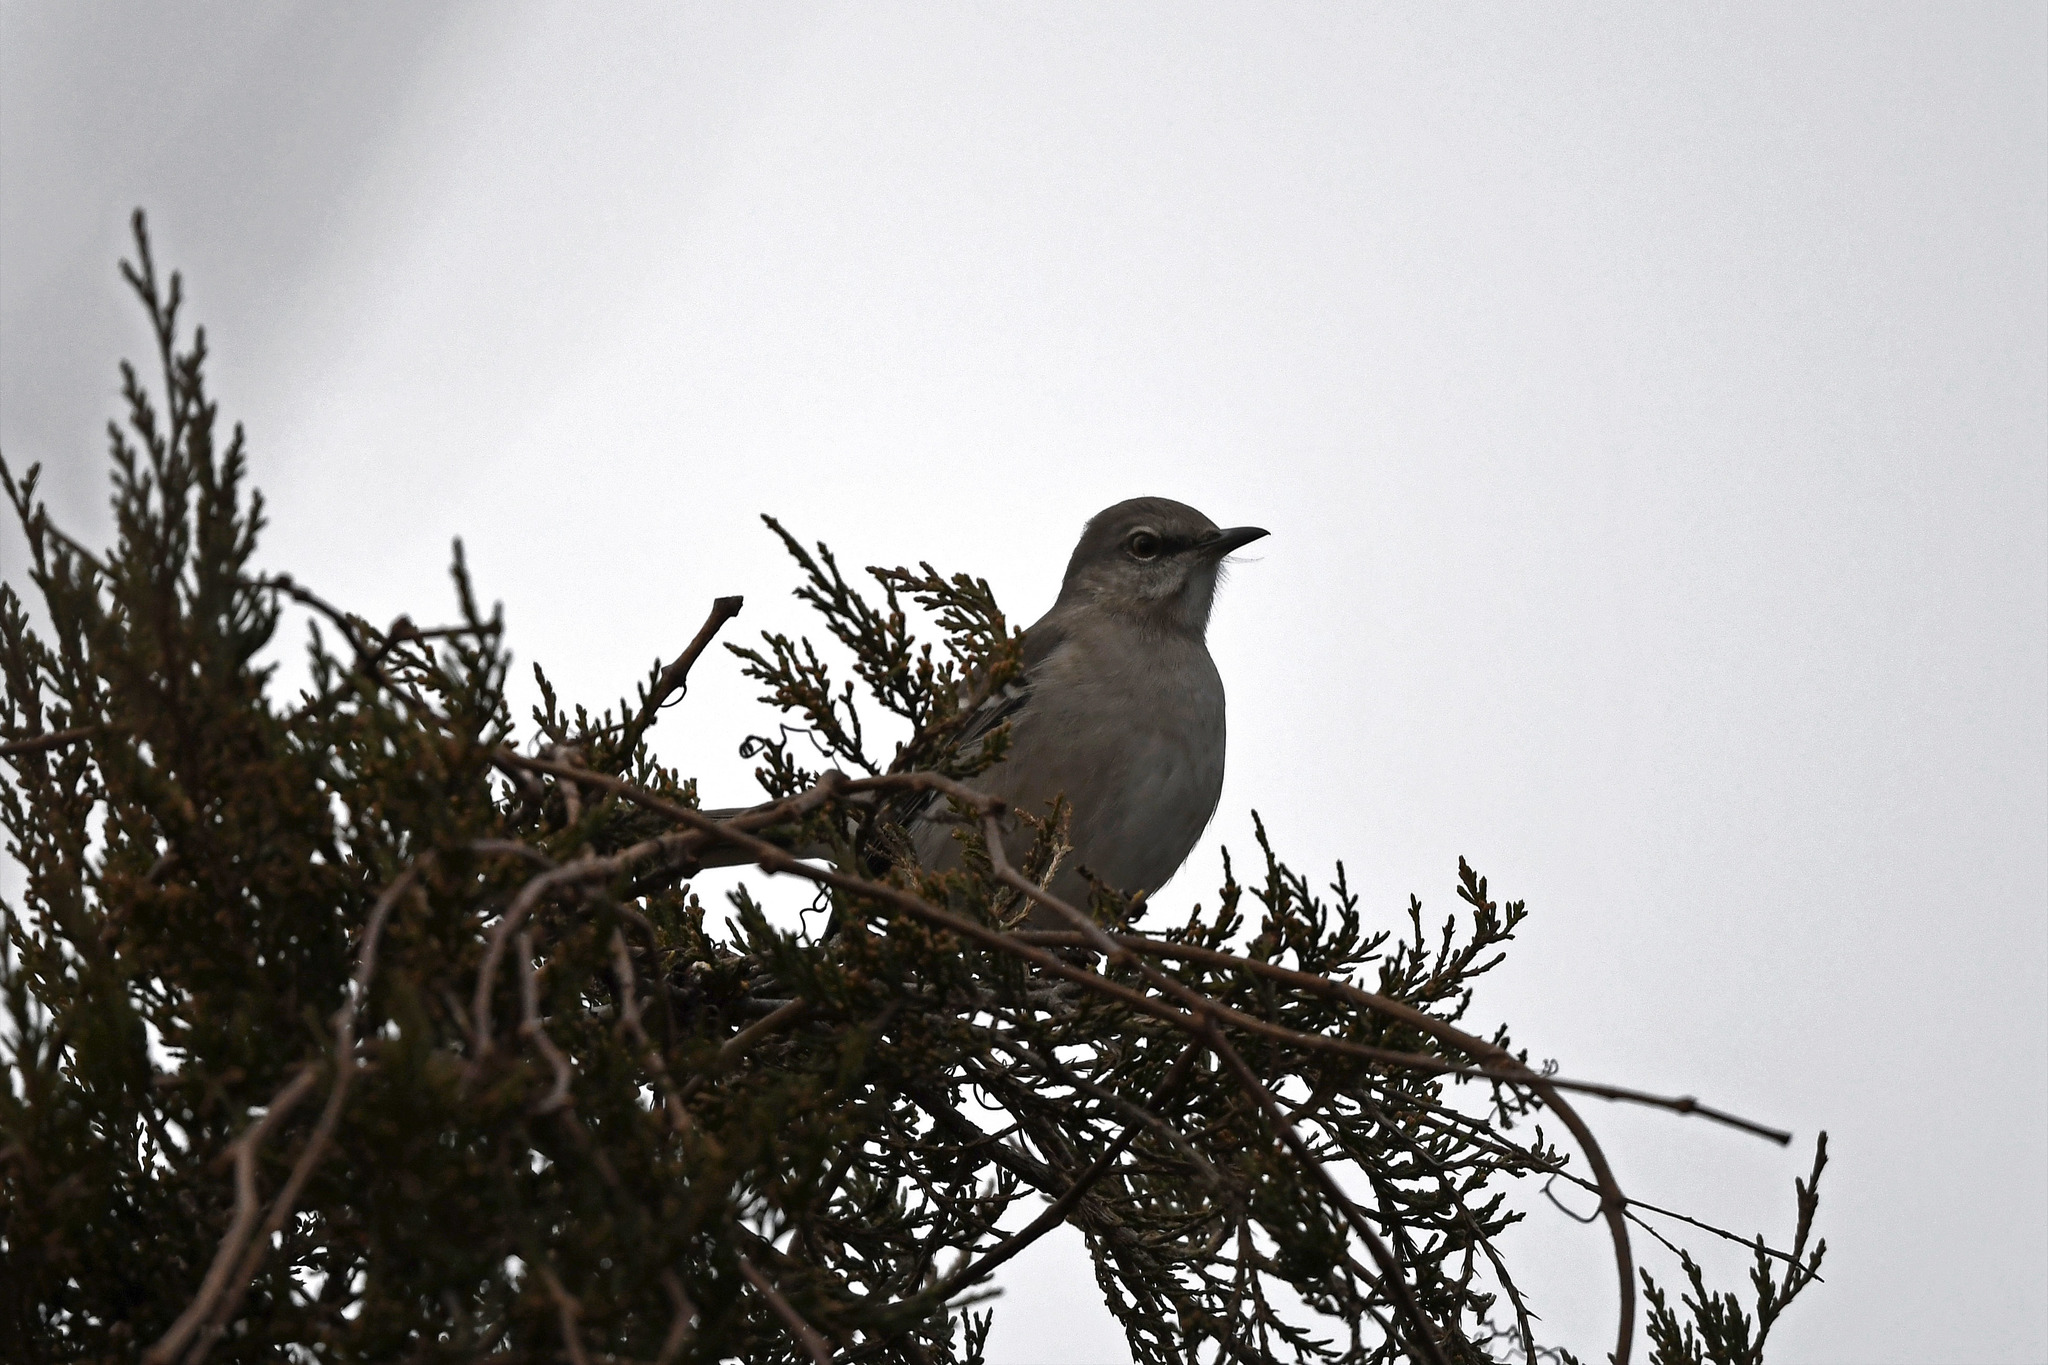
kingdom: Animalia
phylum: Chordata
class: Aves
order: Passeriformes
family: Mimidae
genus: Mimus
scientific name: Mimus polyglottos
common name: Northern mockingbird
